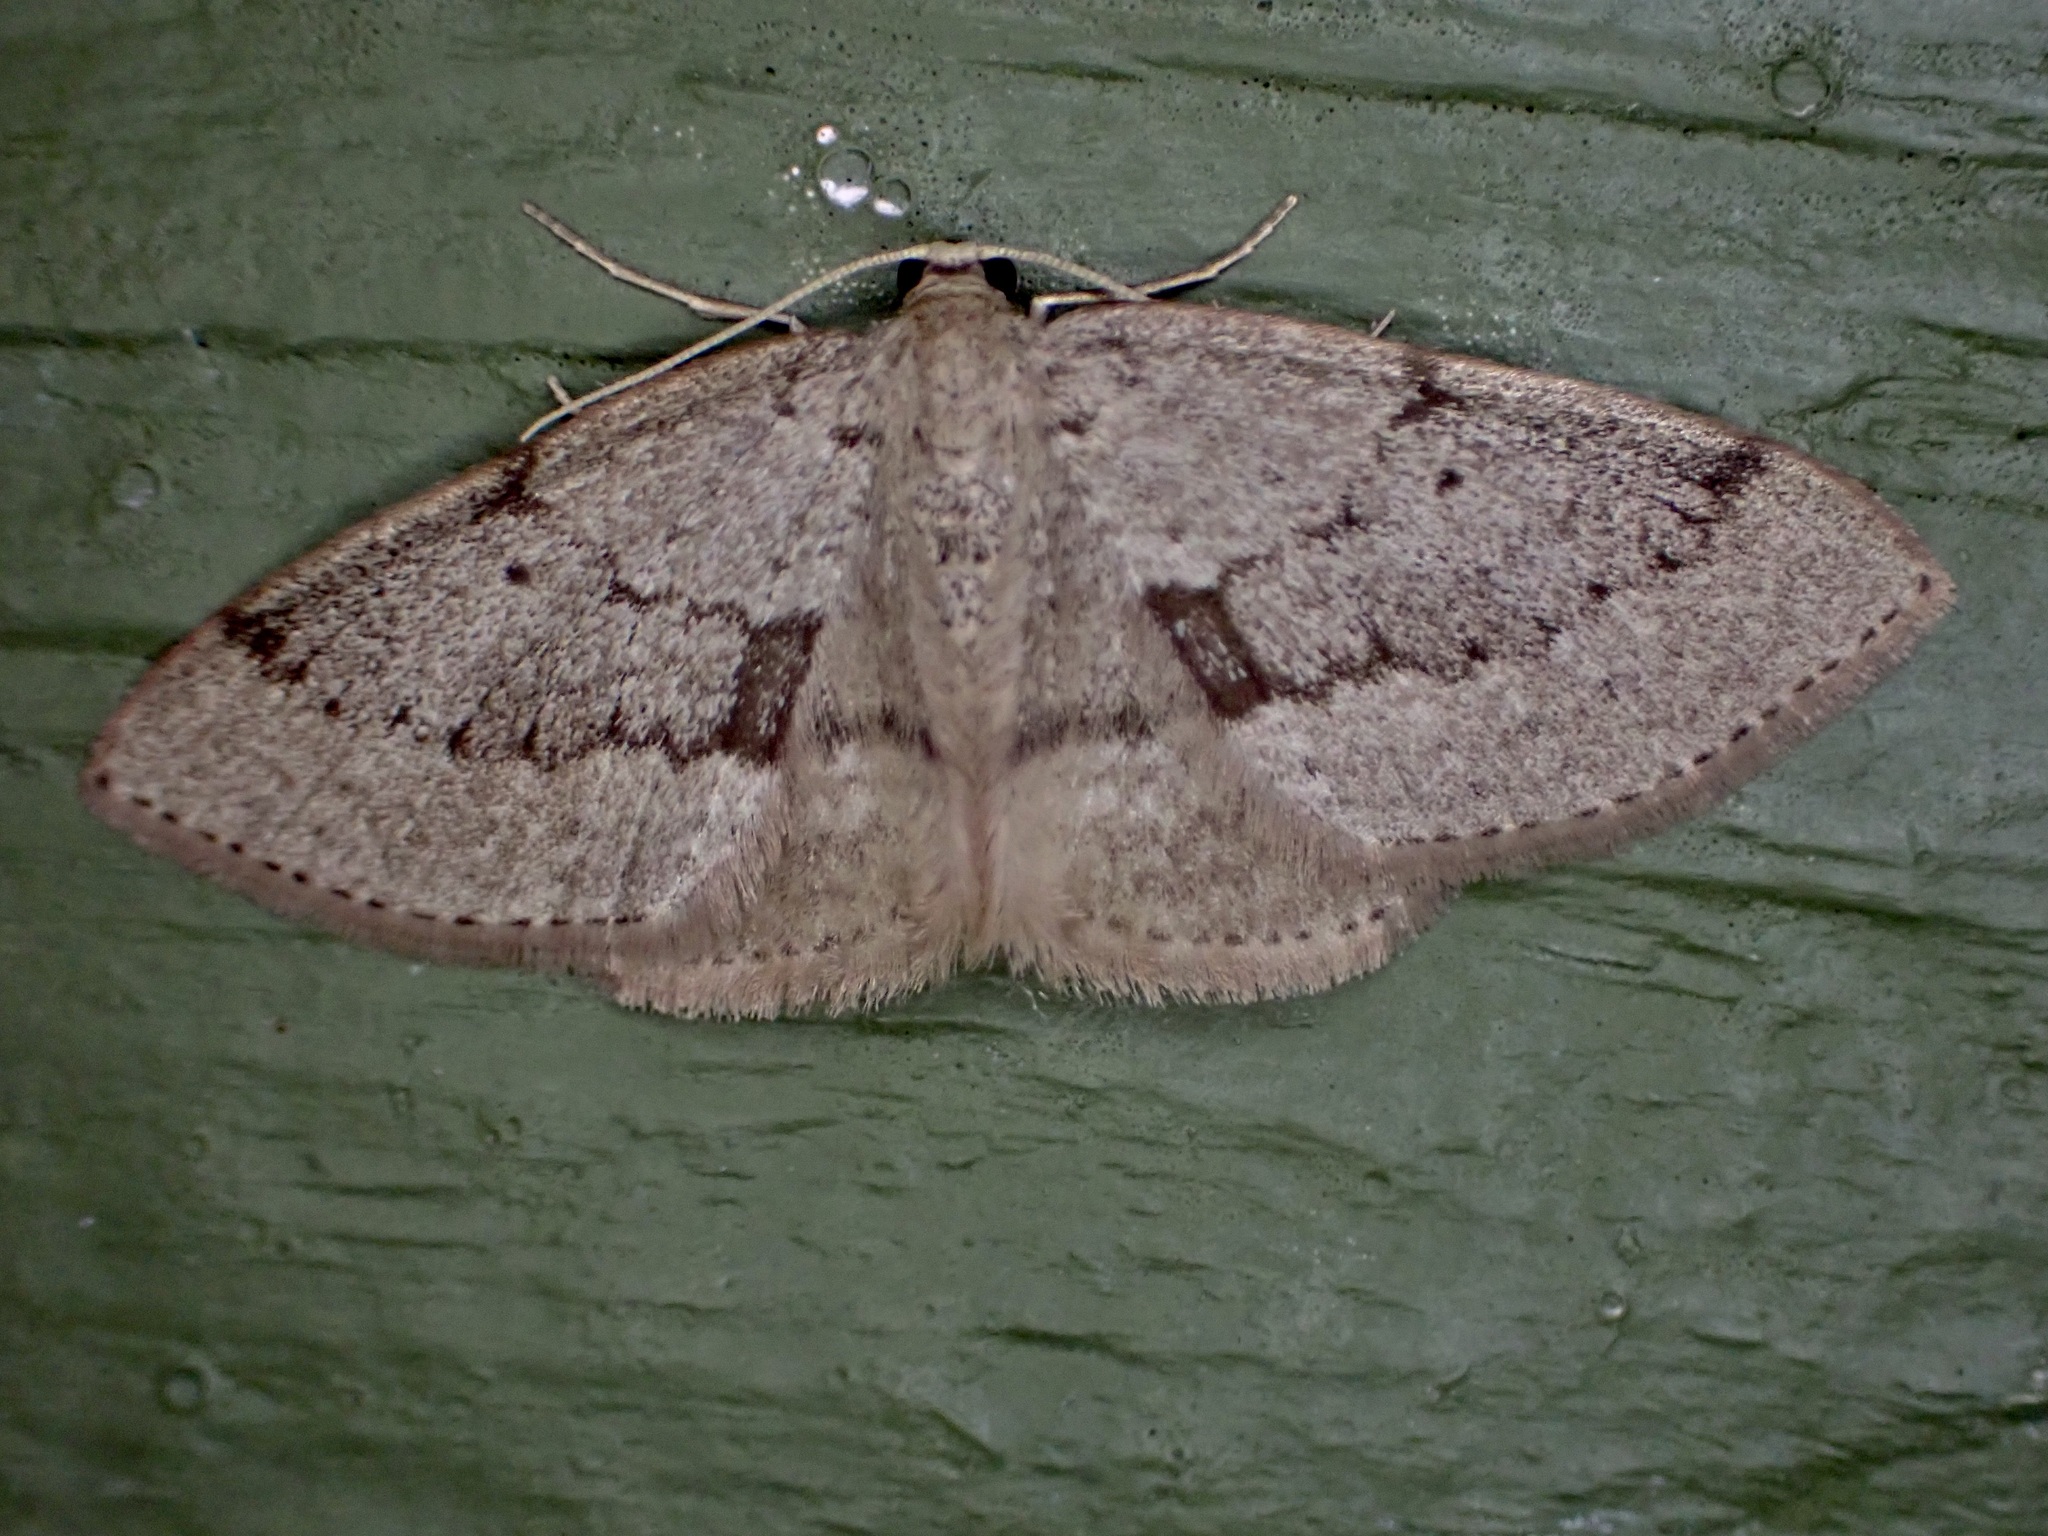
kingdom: Animalia
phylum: Arthropoda
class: Insecta
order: Lepidoptera
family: Geometridae
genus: Poecilasthena
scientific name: Poecilasthena schistaria
